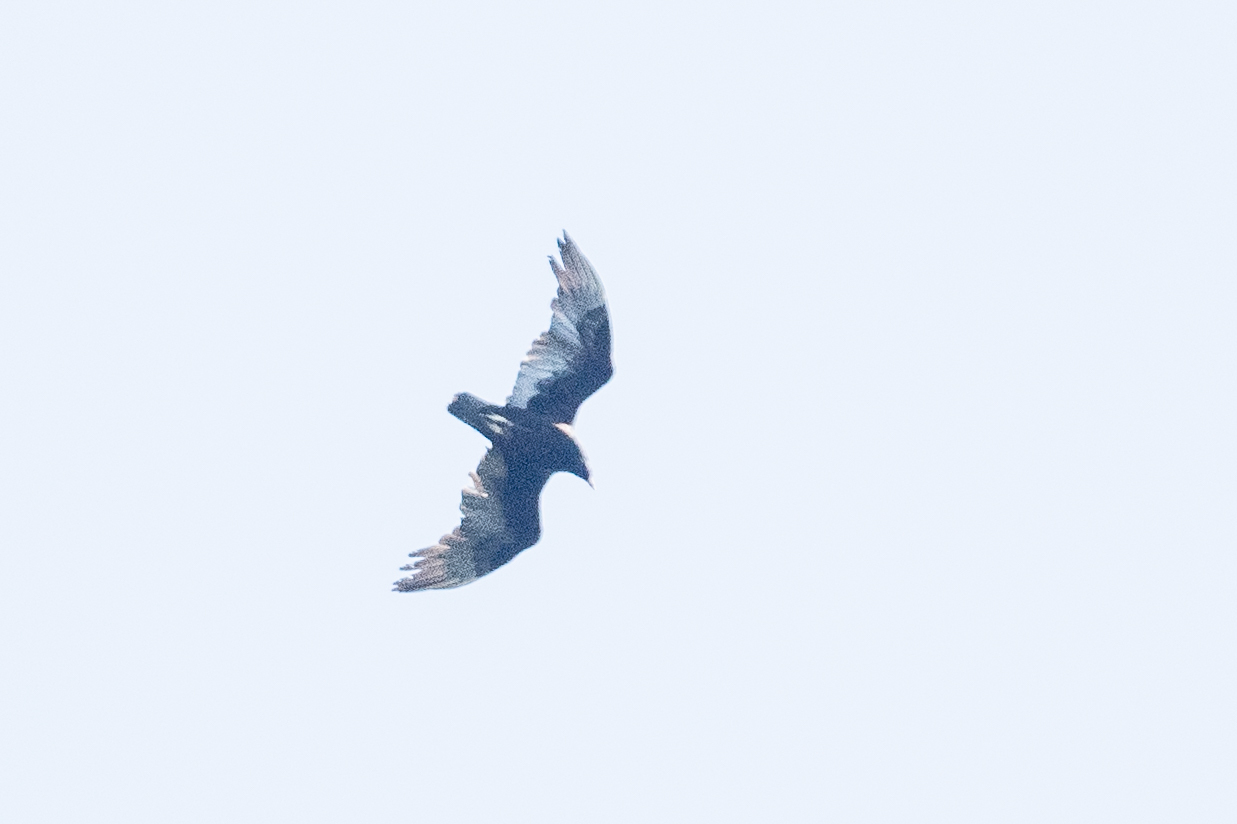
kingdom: Animalia
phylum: Chordata
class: Aves
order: Accipitriformes
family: Cathartidae
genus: Cathartes
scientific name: Cathartes aura
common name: Turkey vulture
